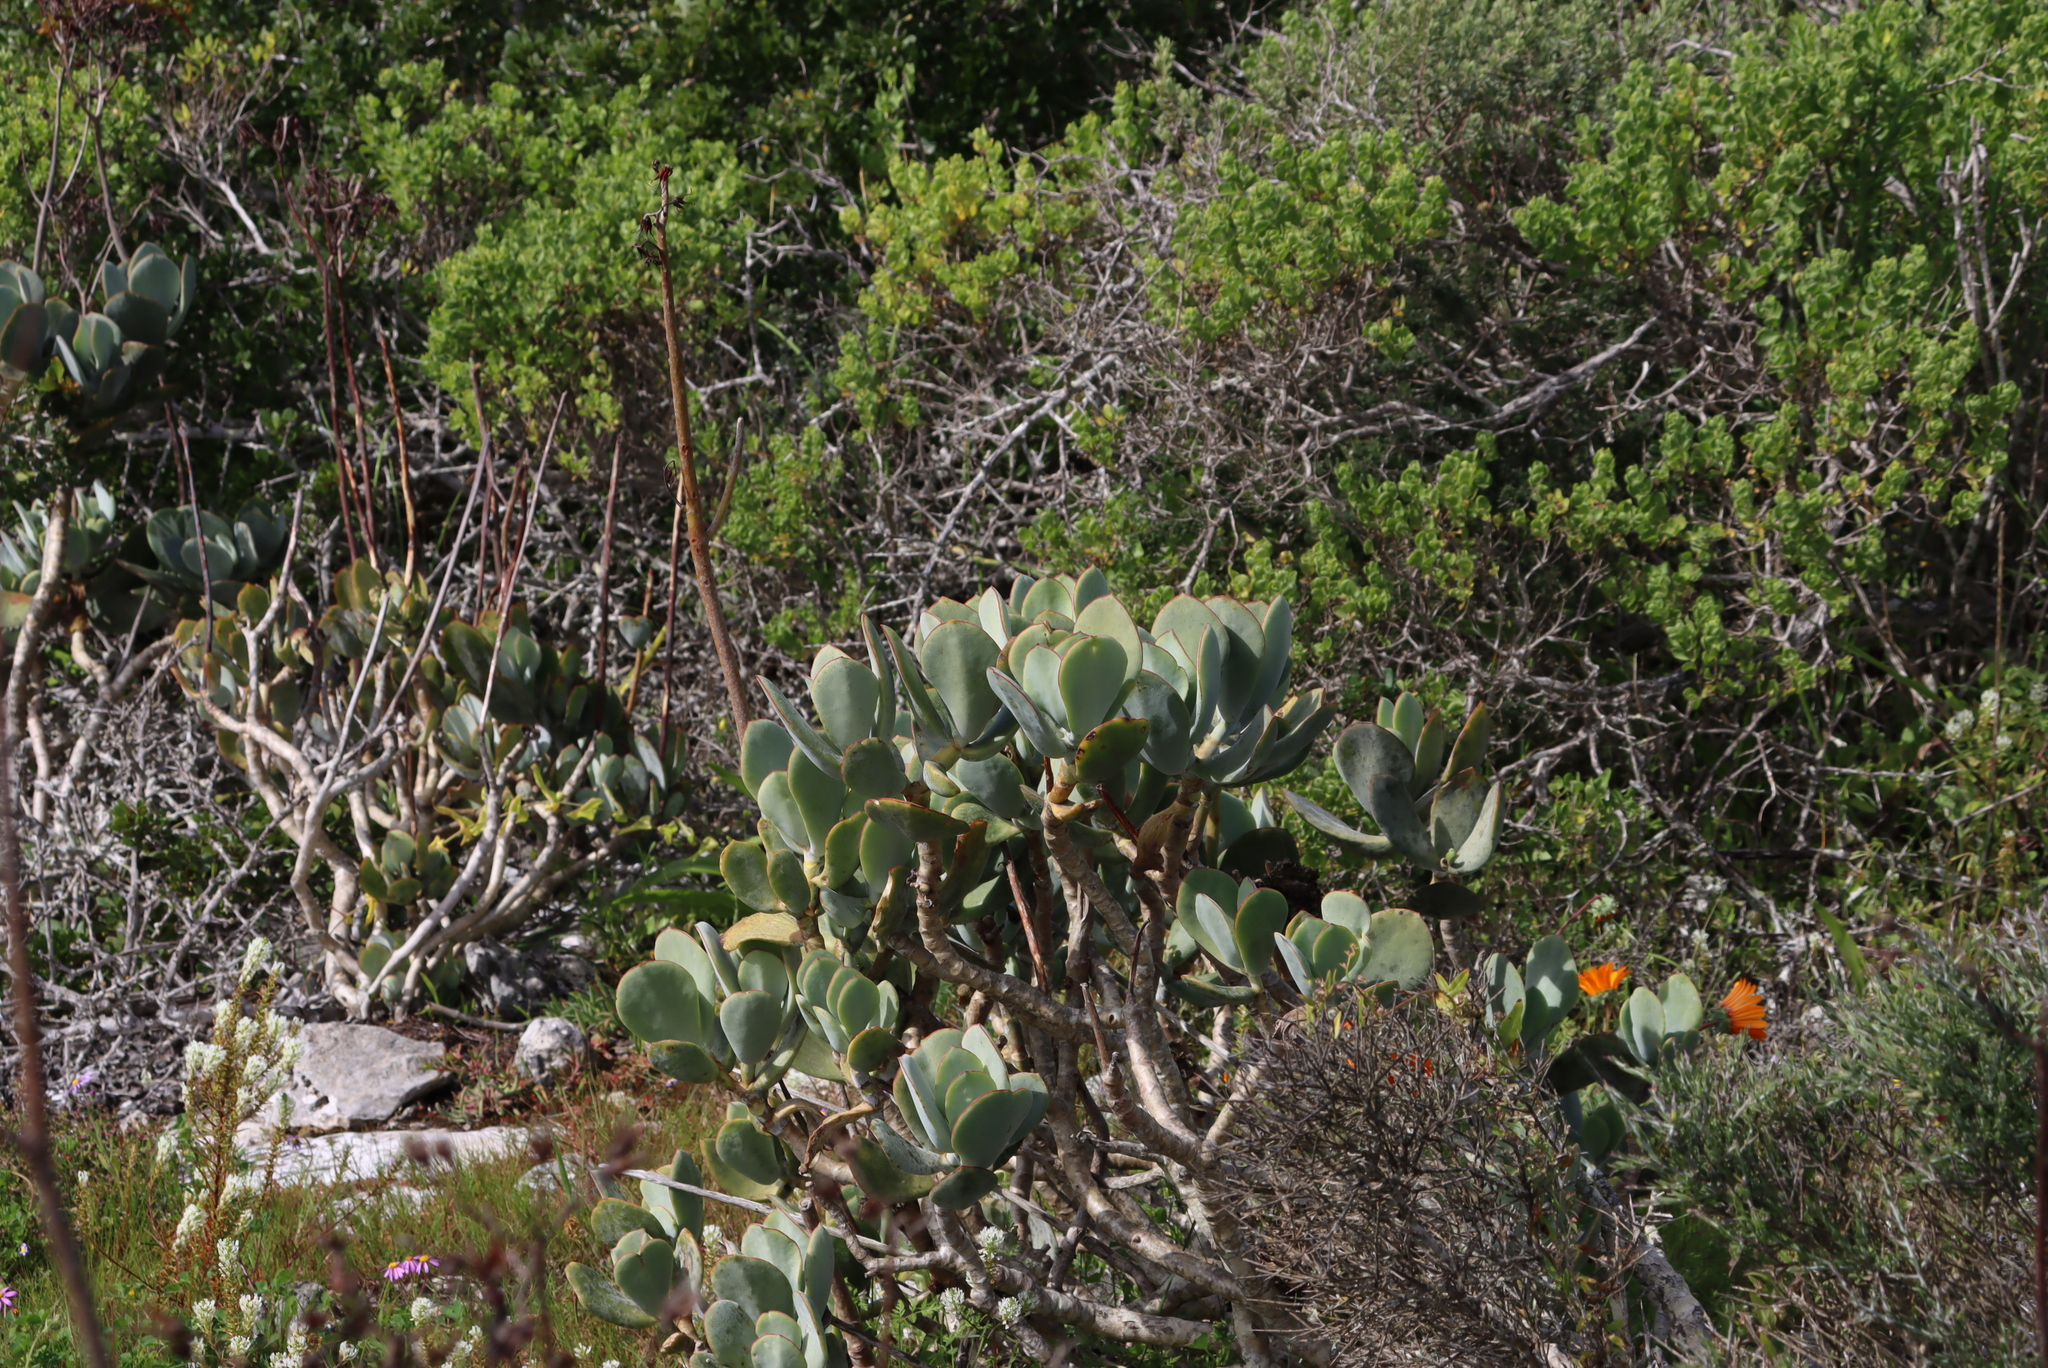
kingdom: Plantae
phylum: Tracheophyta
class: Magnoliopsida
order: Saxifragales
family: Crassulaceae
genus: Cotyledon
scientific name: Cotyledon orbiculata
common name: Pig's ear
